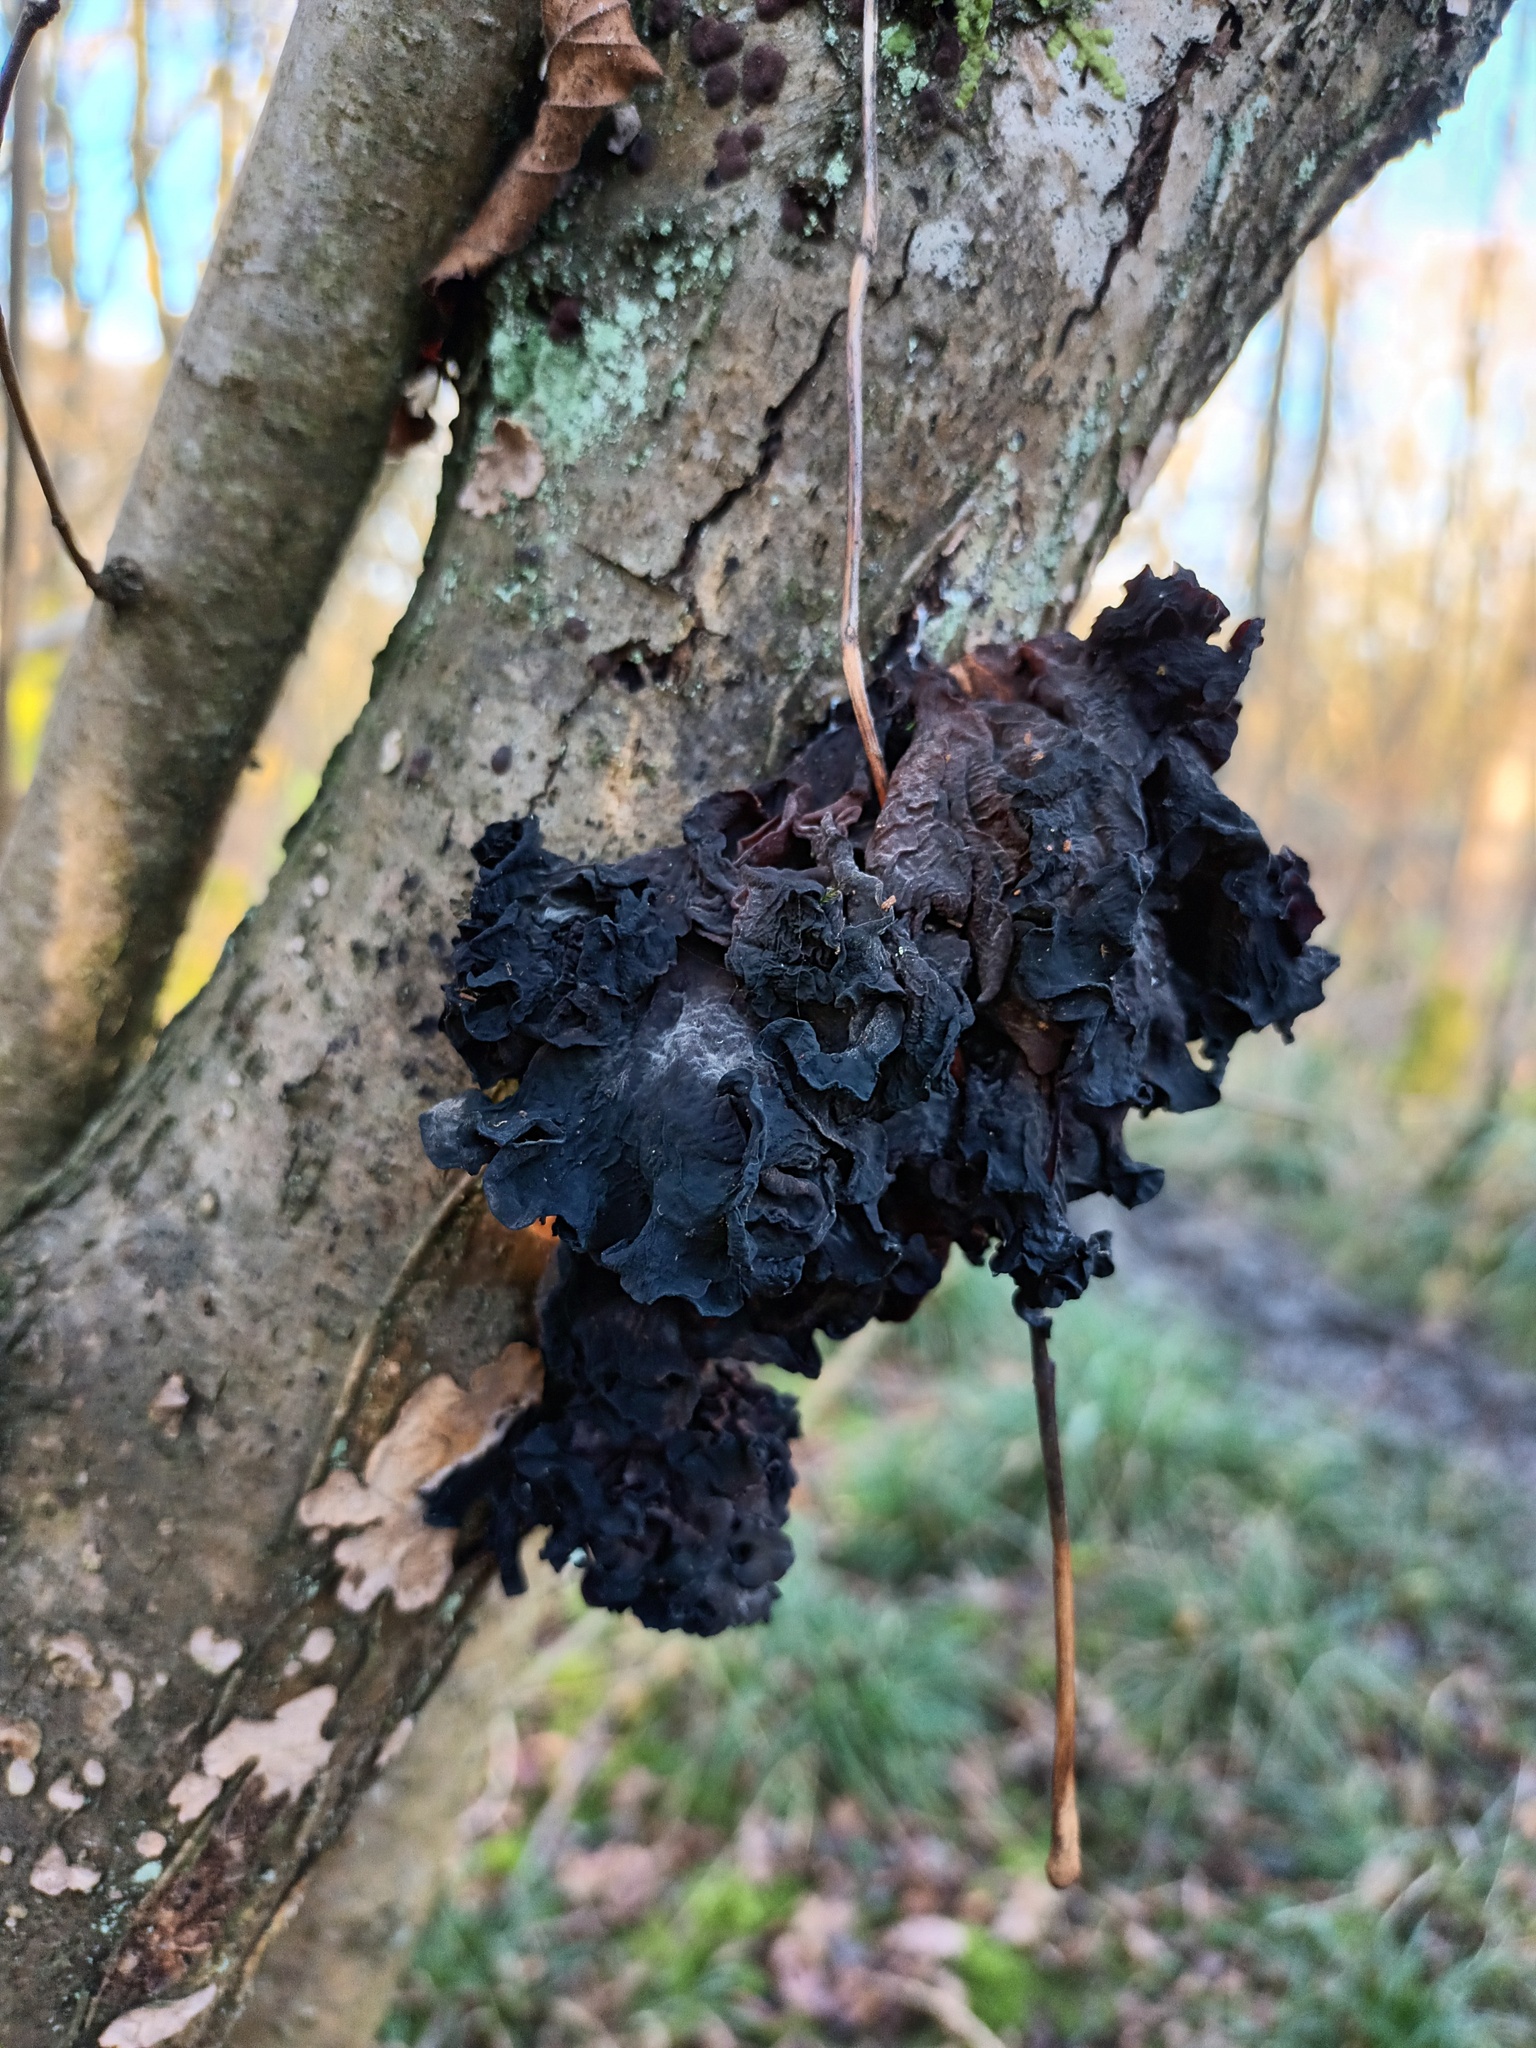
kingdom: Fungi
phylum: Basidiomycota
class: Tremellomycetes
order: Tremellales
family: Tremellaceae
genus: Phaeotremella
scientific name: Phaeotremella frondosa
